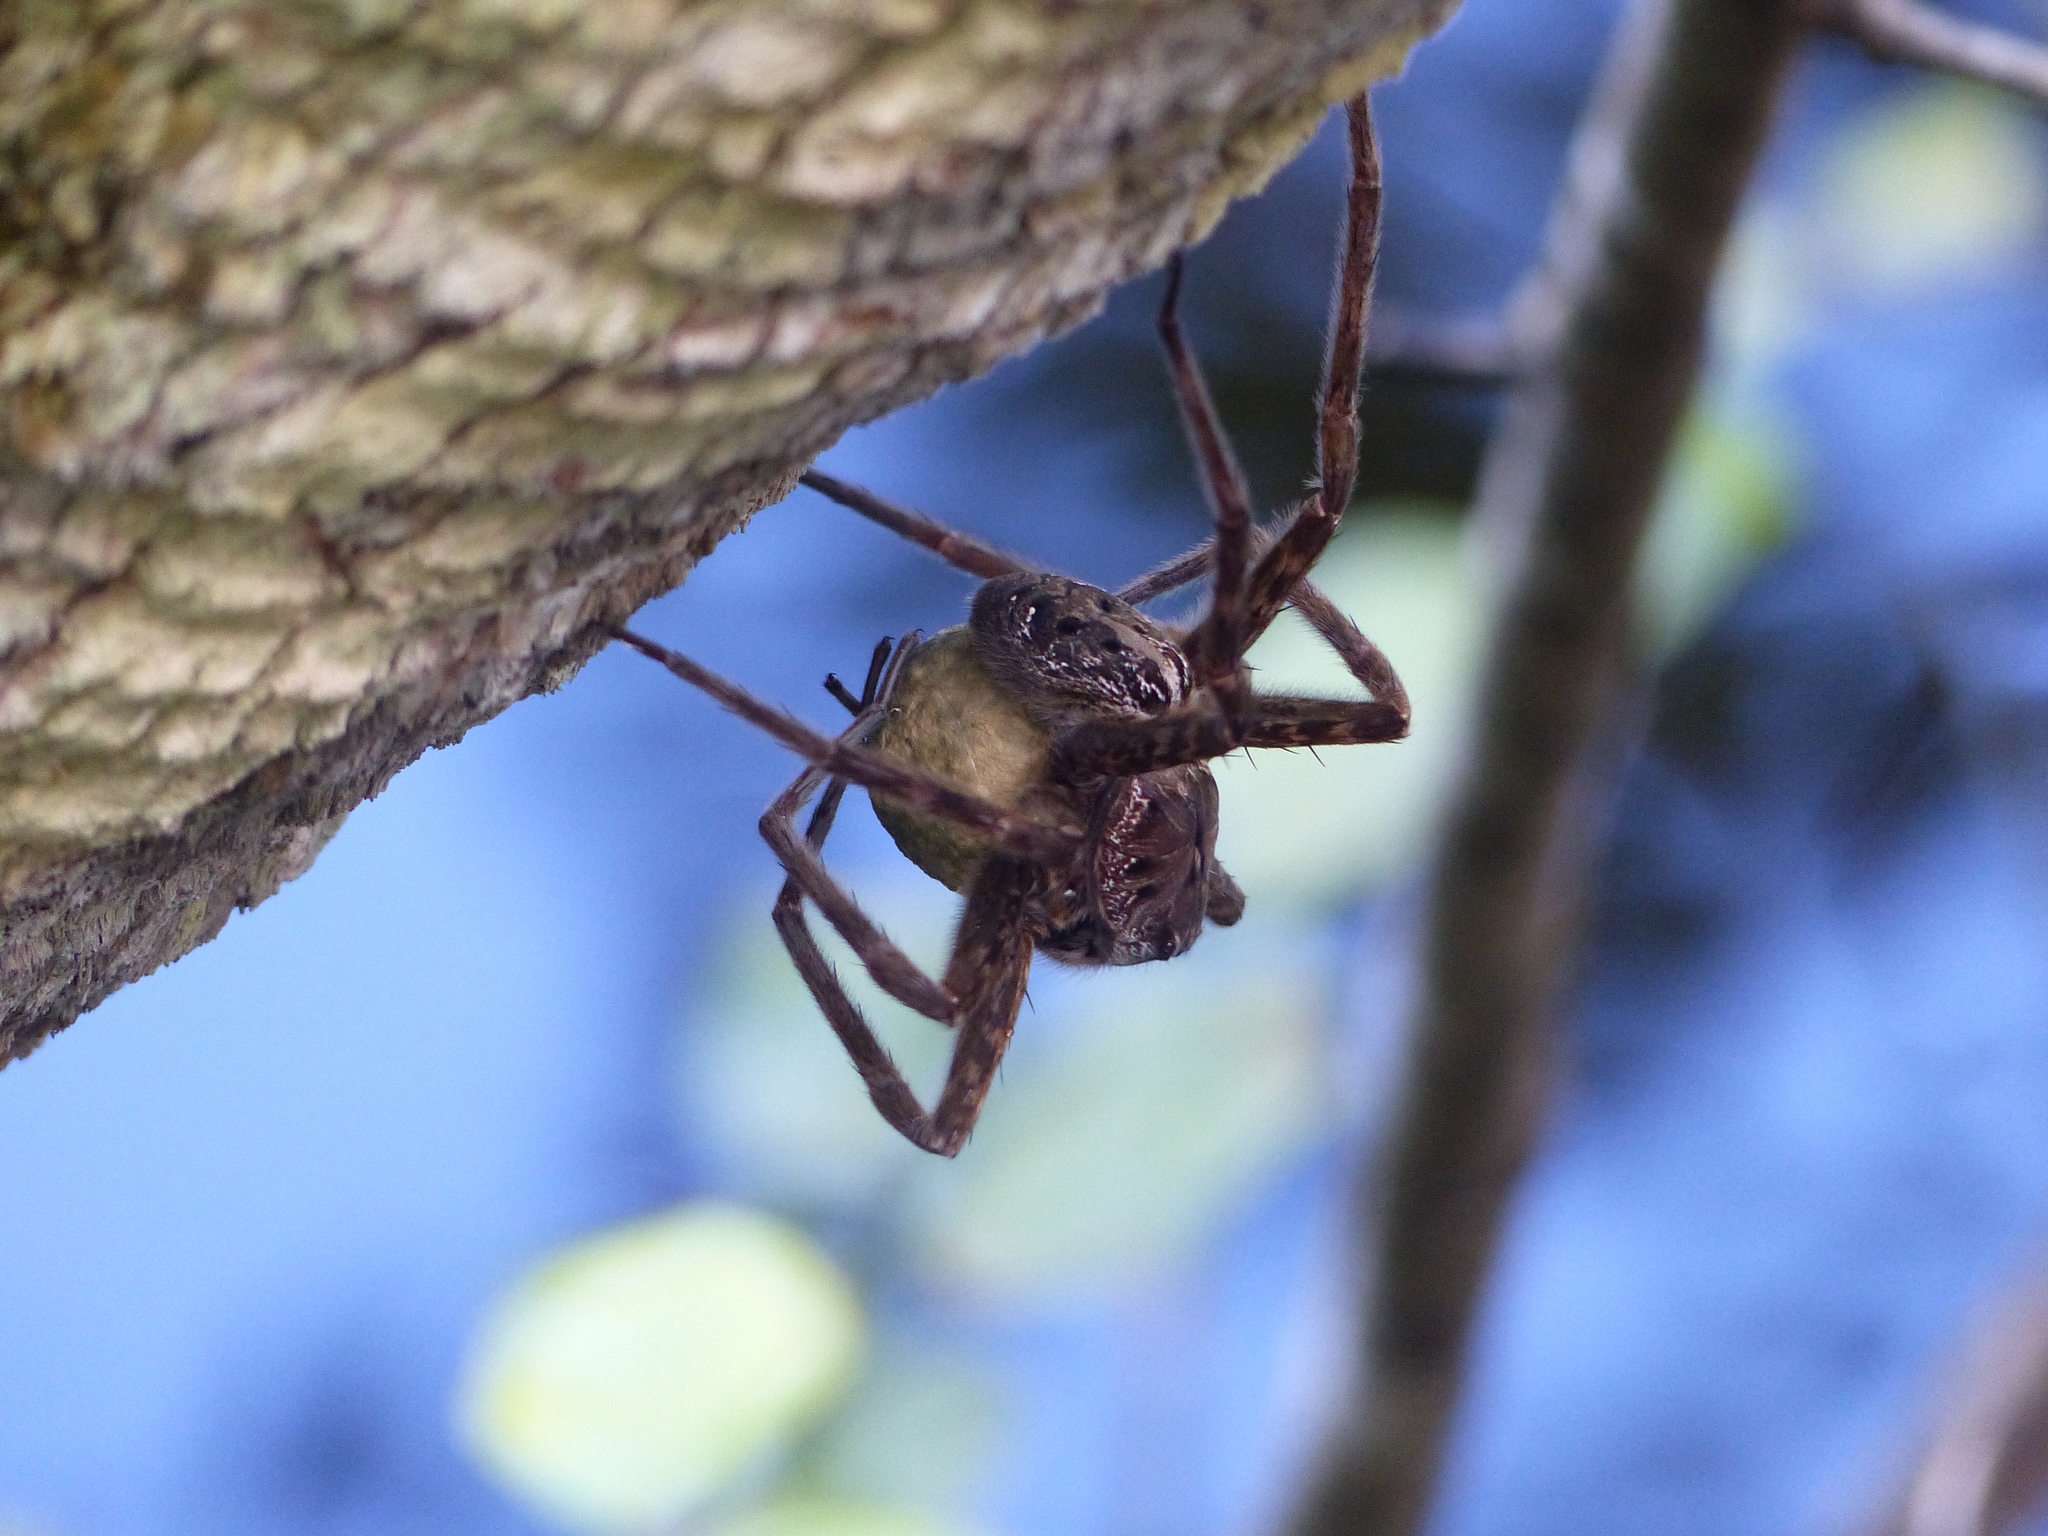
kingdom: Animalia
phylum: Arthropoda
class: Arachnida
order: Araneae
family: Pisauridae
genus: Dolomedes
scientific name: Dolomedes okefinokensis
